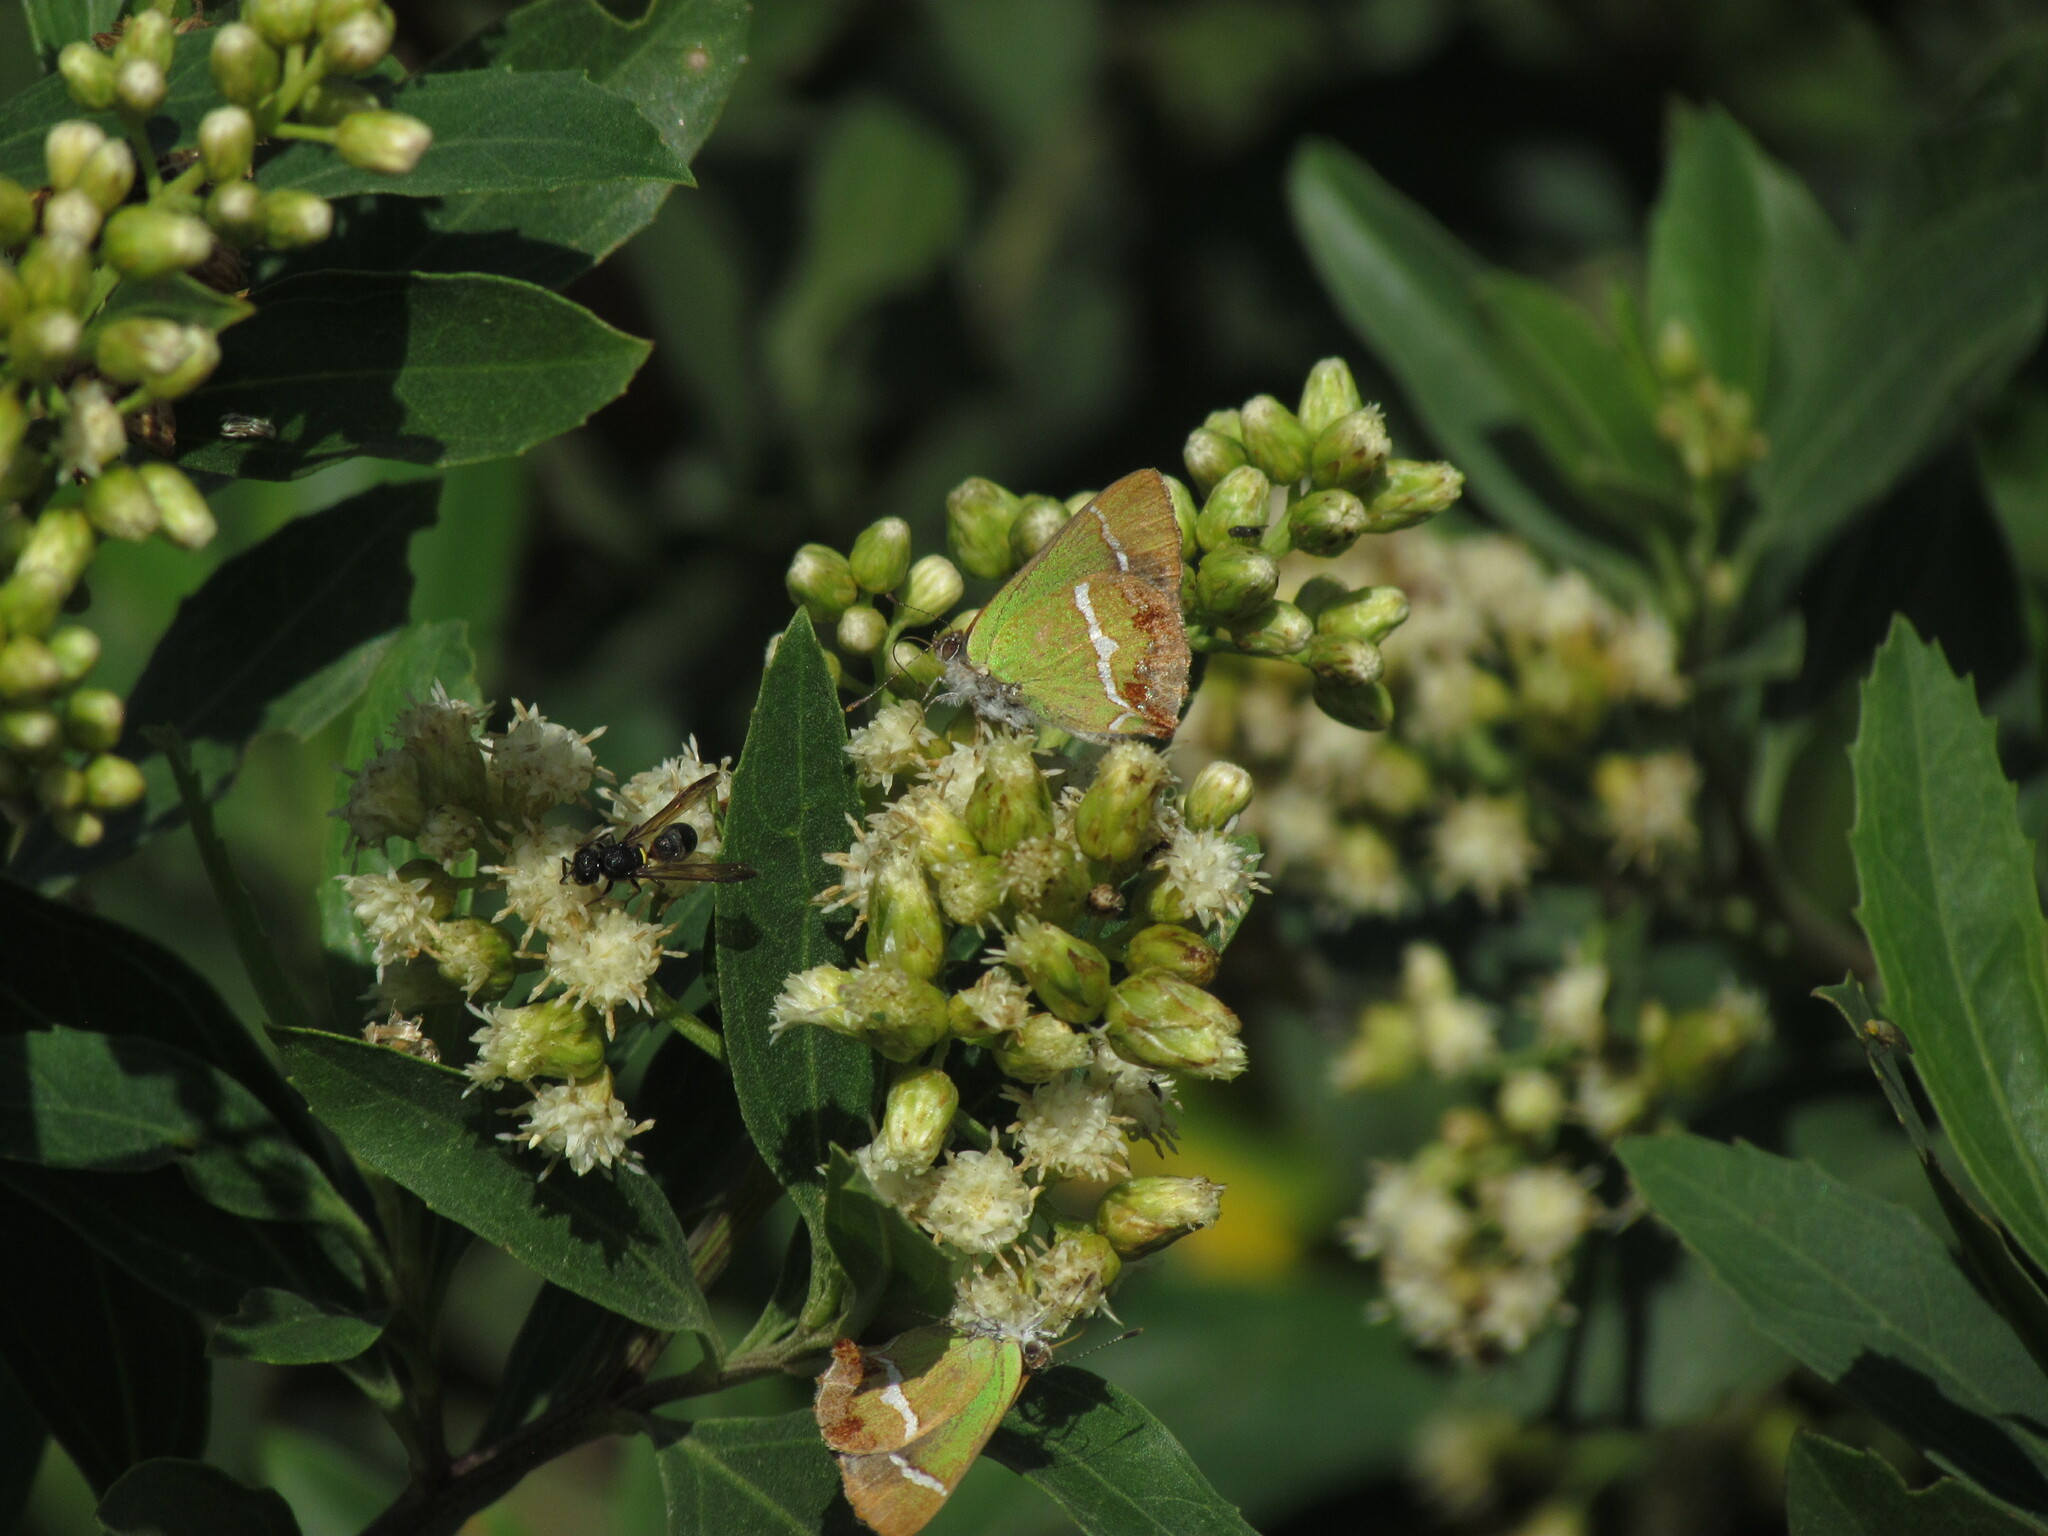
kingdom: Animalia
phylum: Arthropoda
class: Insecta
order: Lepidoptera
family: Lycaenidae
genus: Chlorostrymon
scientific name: Chlorostrymon simaethis
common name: Silver-banded hairstreak
